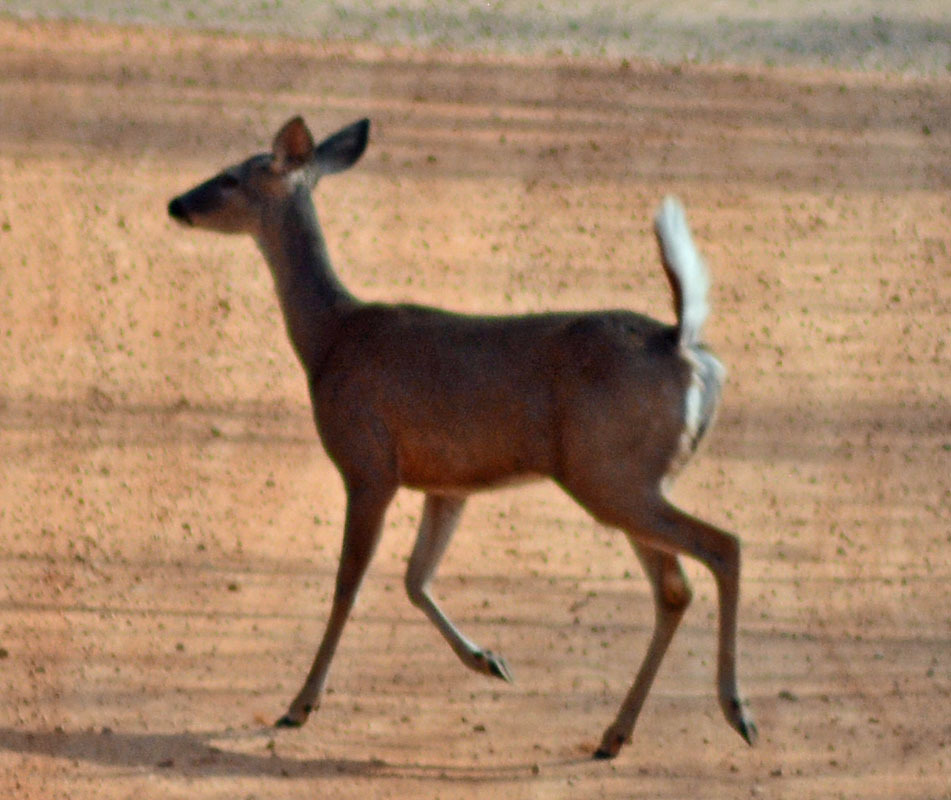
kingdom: Animalia
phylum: Chordata
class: Mammalia
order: Artiodactyla
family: Cervidae
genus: Odocoileus
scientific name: Odocoileus virginianus
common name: White-tailed deer
